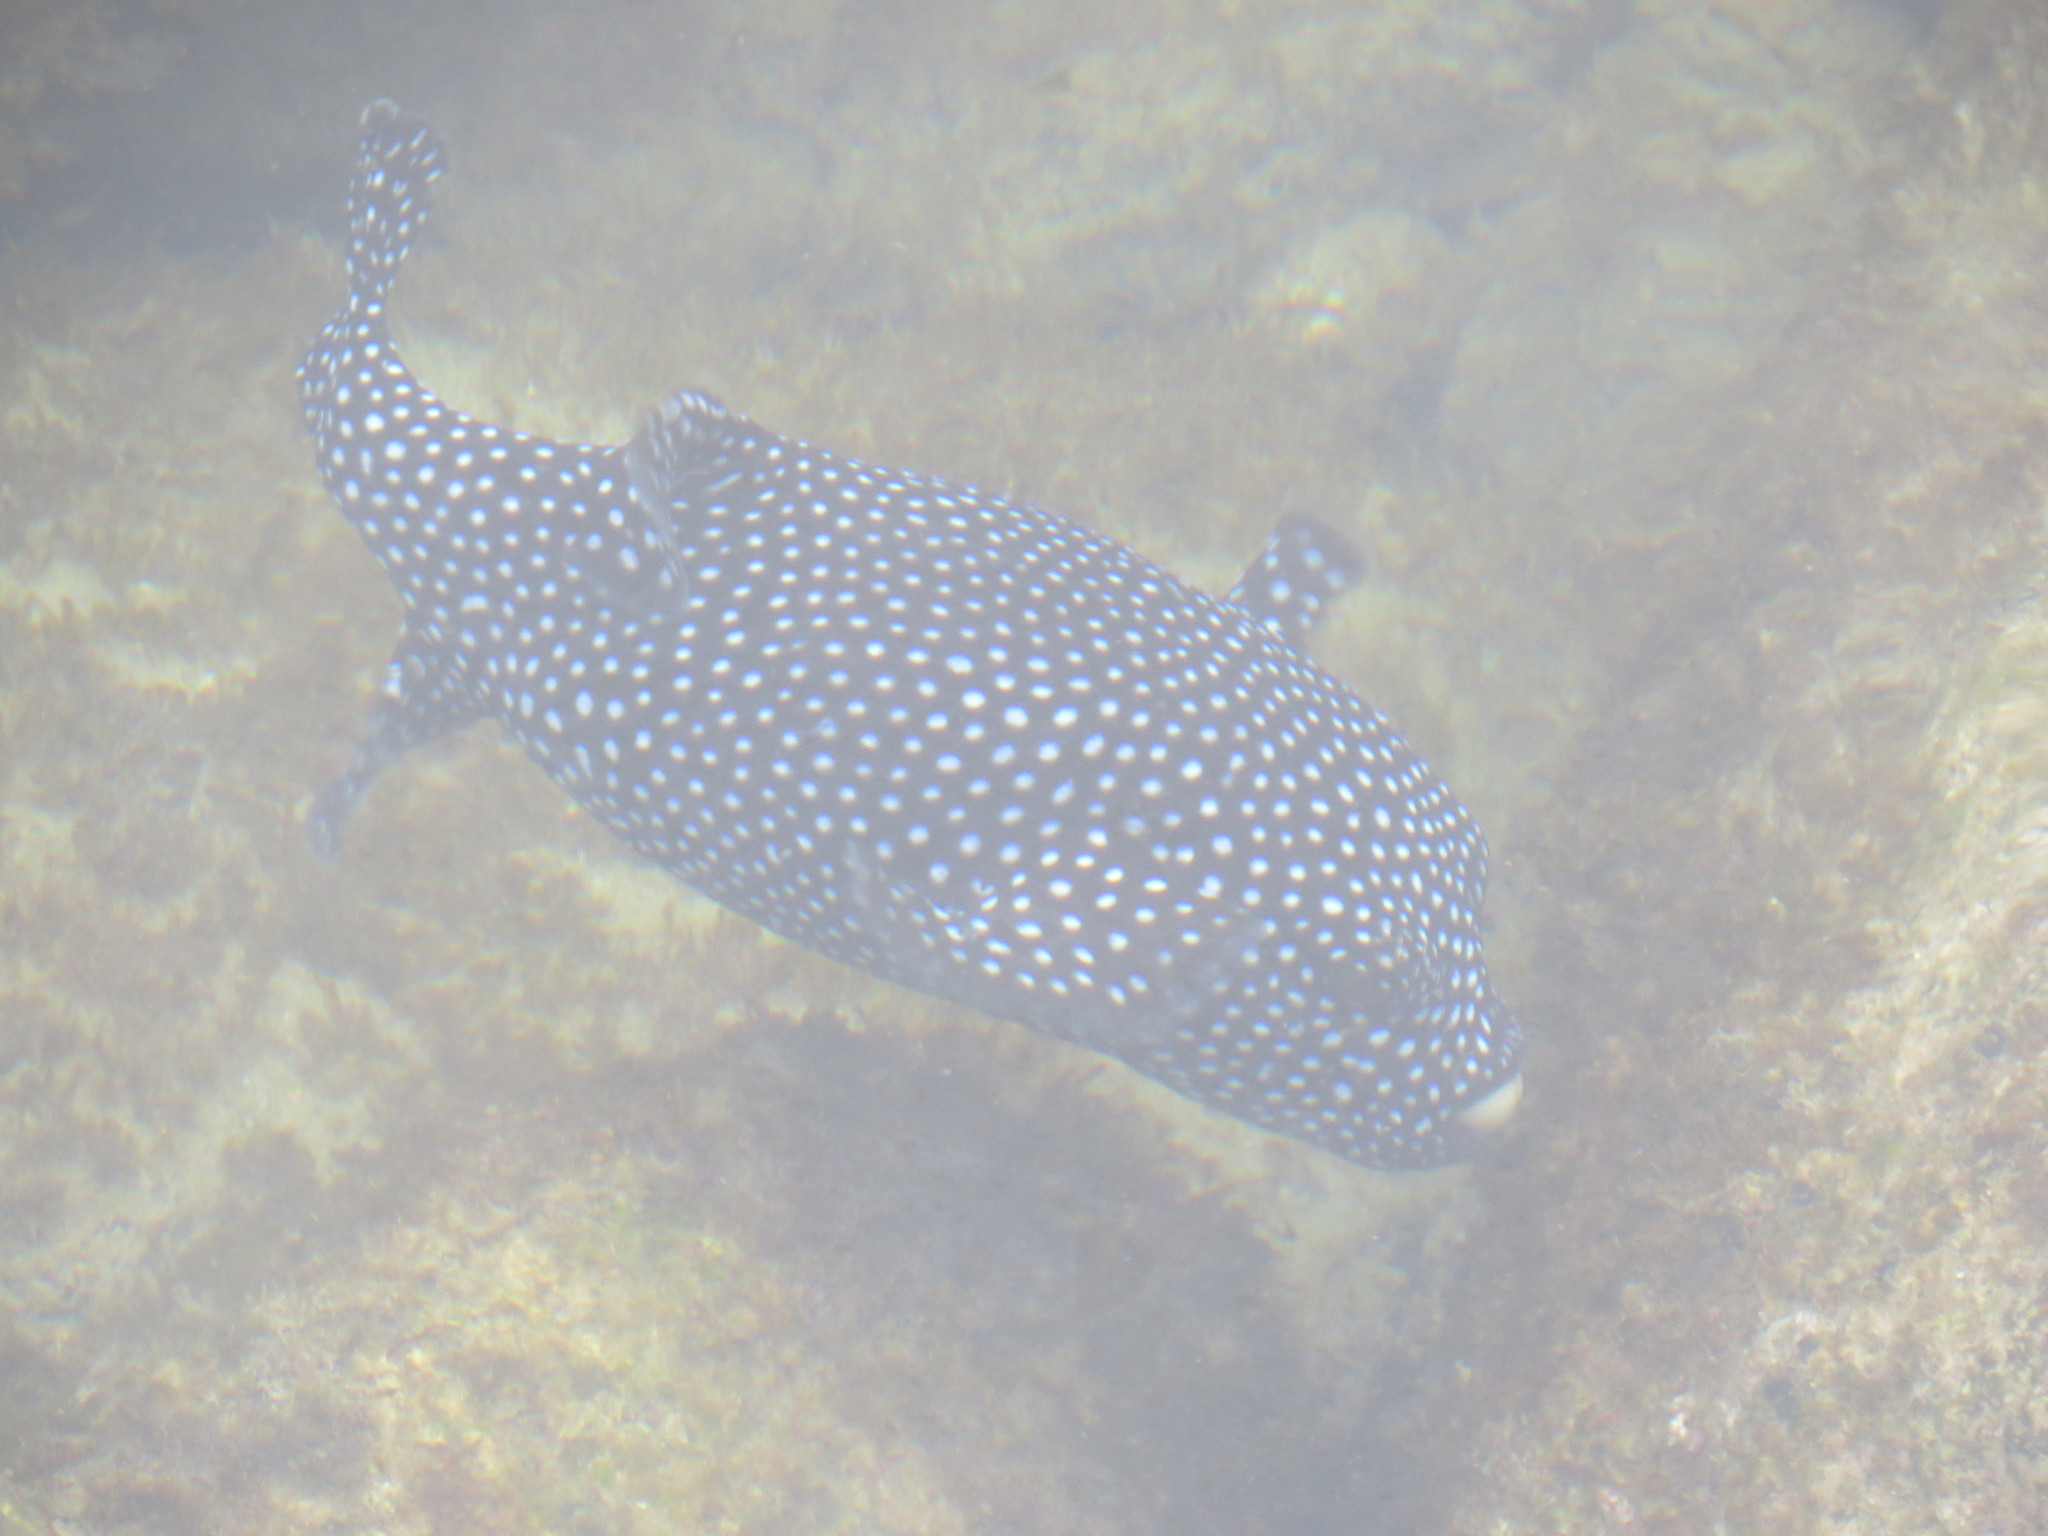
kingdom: Animalia
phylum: Chordata
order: Tetraodontiformes
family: Tetraodontidae
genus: Arothron
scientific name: Arothron meleagris
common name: Guinea-fowl pufferfish
